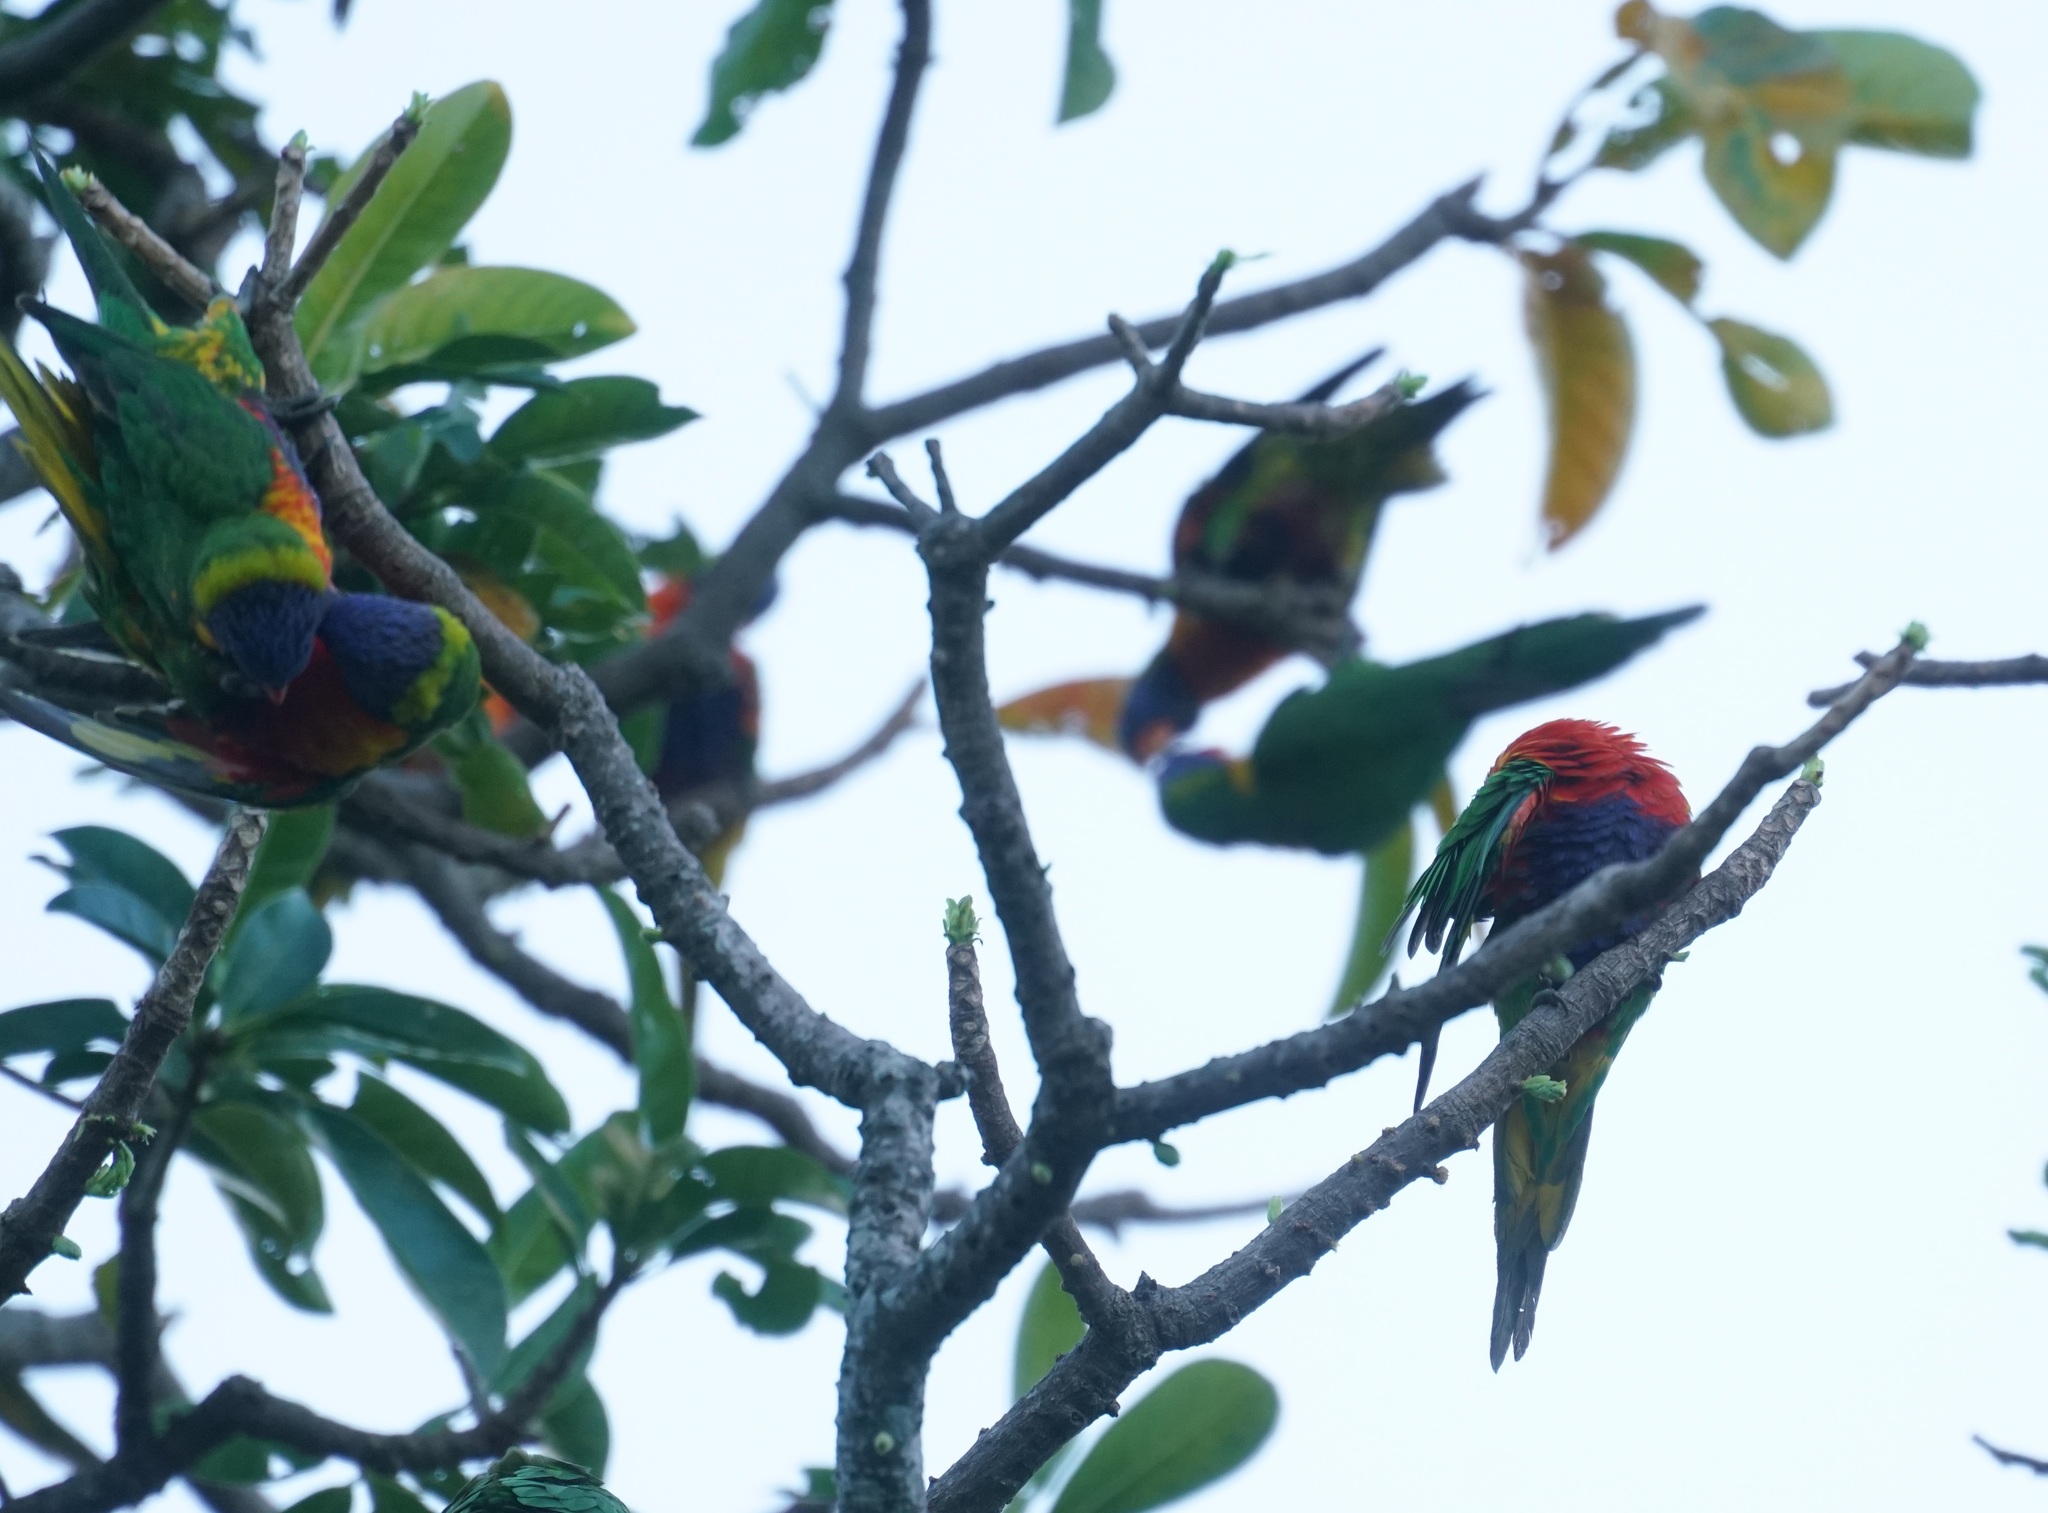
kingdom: Animalia
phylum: Chordata
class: Aves
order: Psittaciformes
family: Psittacidae
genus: Trichoglossus
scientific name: Trichoglossus haematodus
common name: Coconut lorikeet
